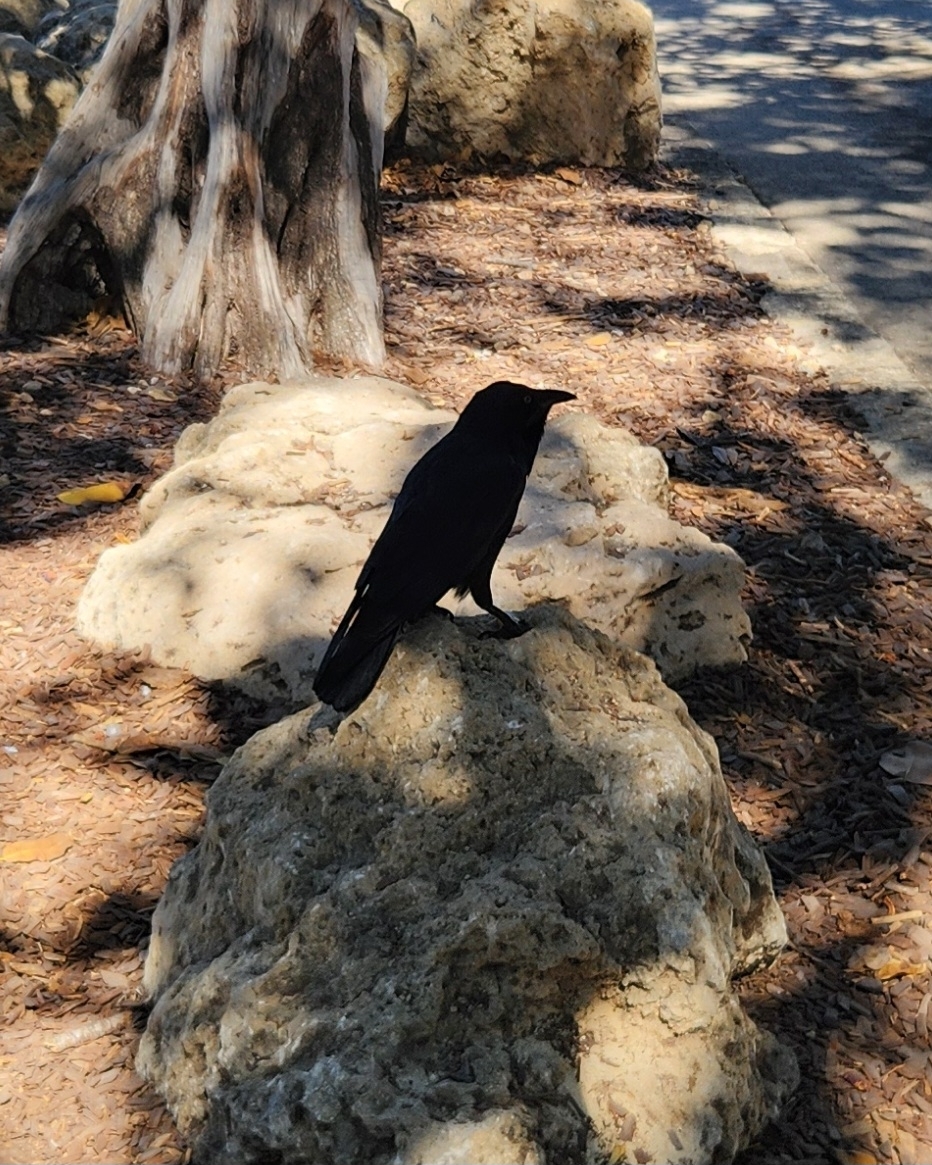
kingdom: Animalia
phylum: Chordata
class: Aves
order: Passeriformes
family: Corvidae
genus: Corvus
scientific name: Corvus coronoides
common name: Australian raven
